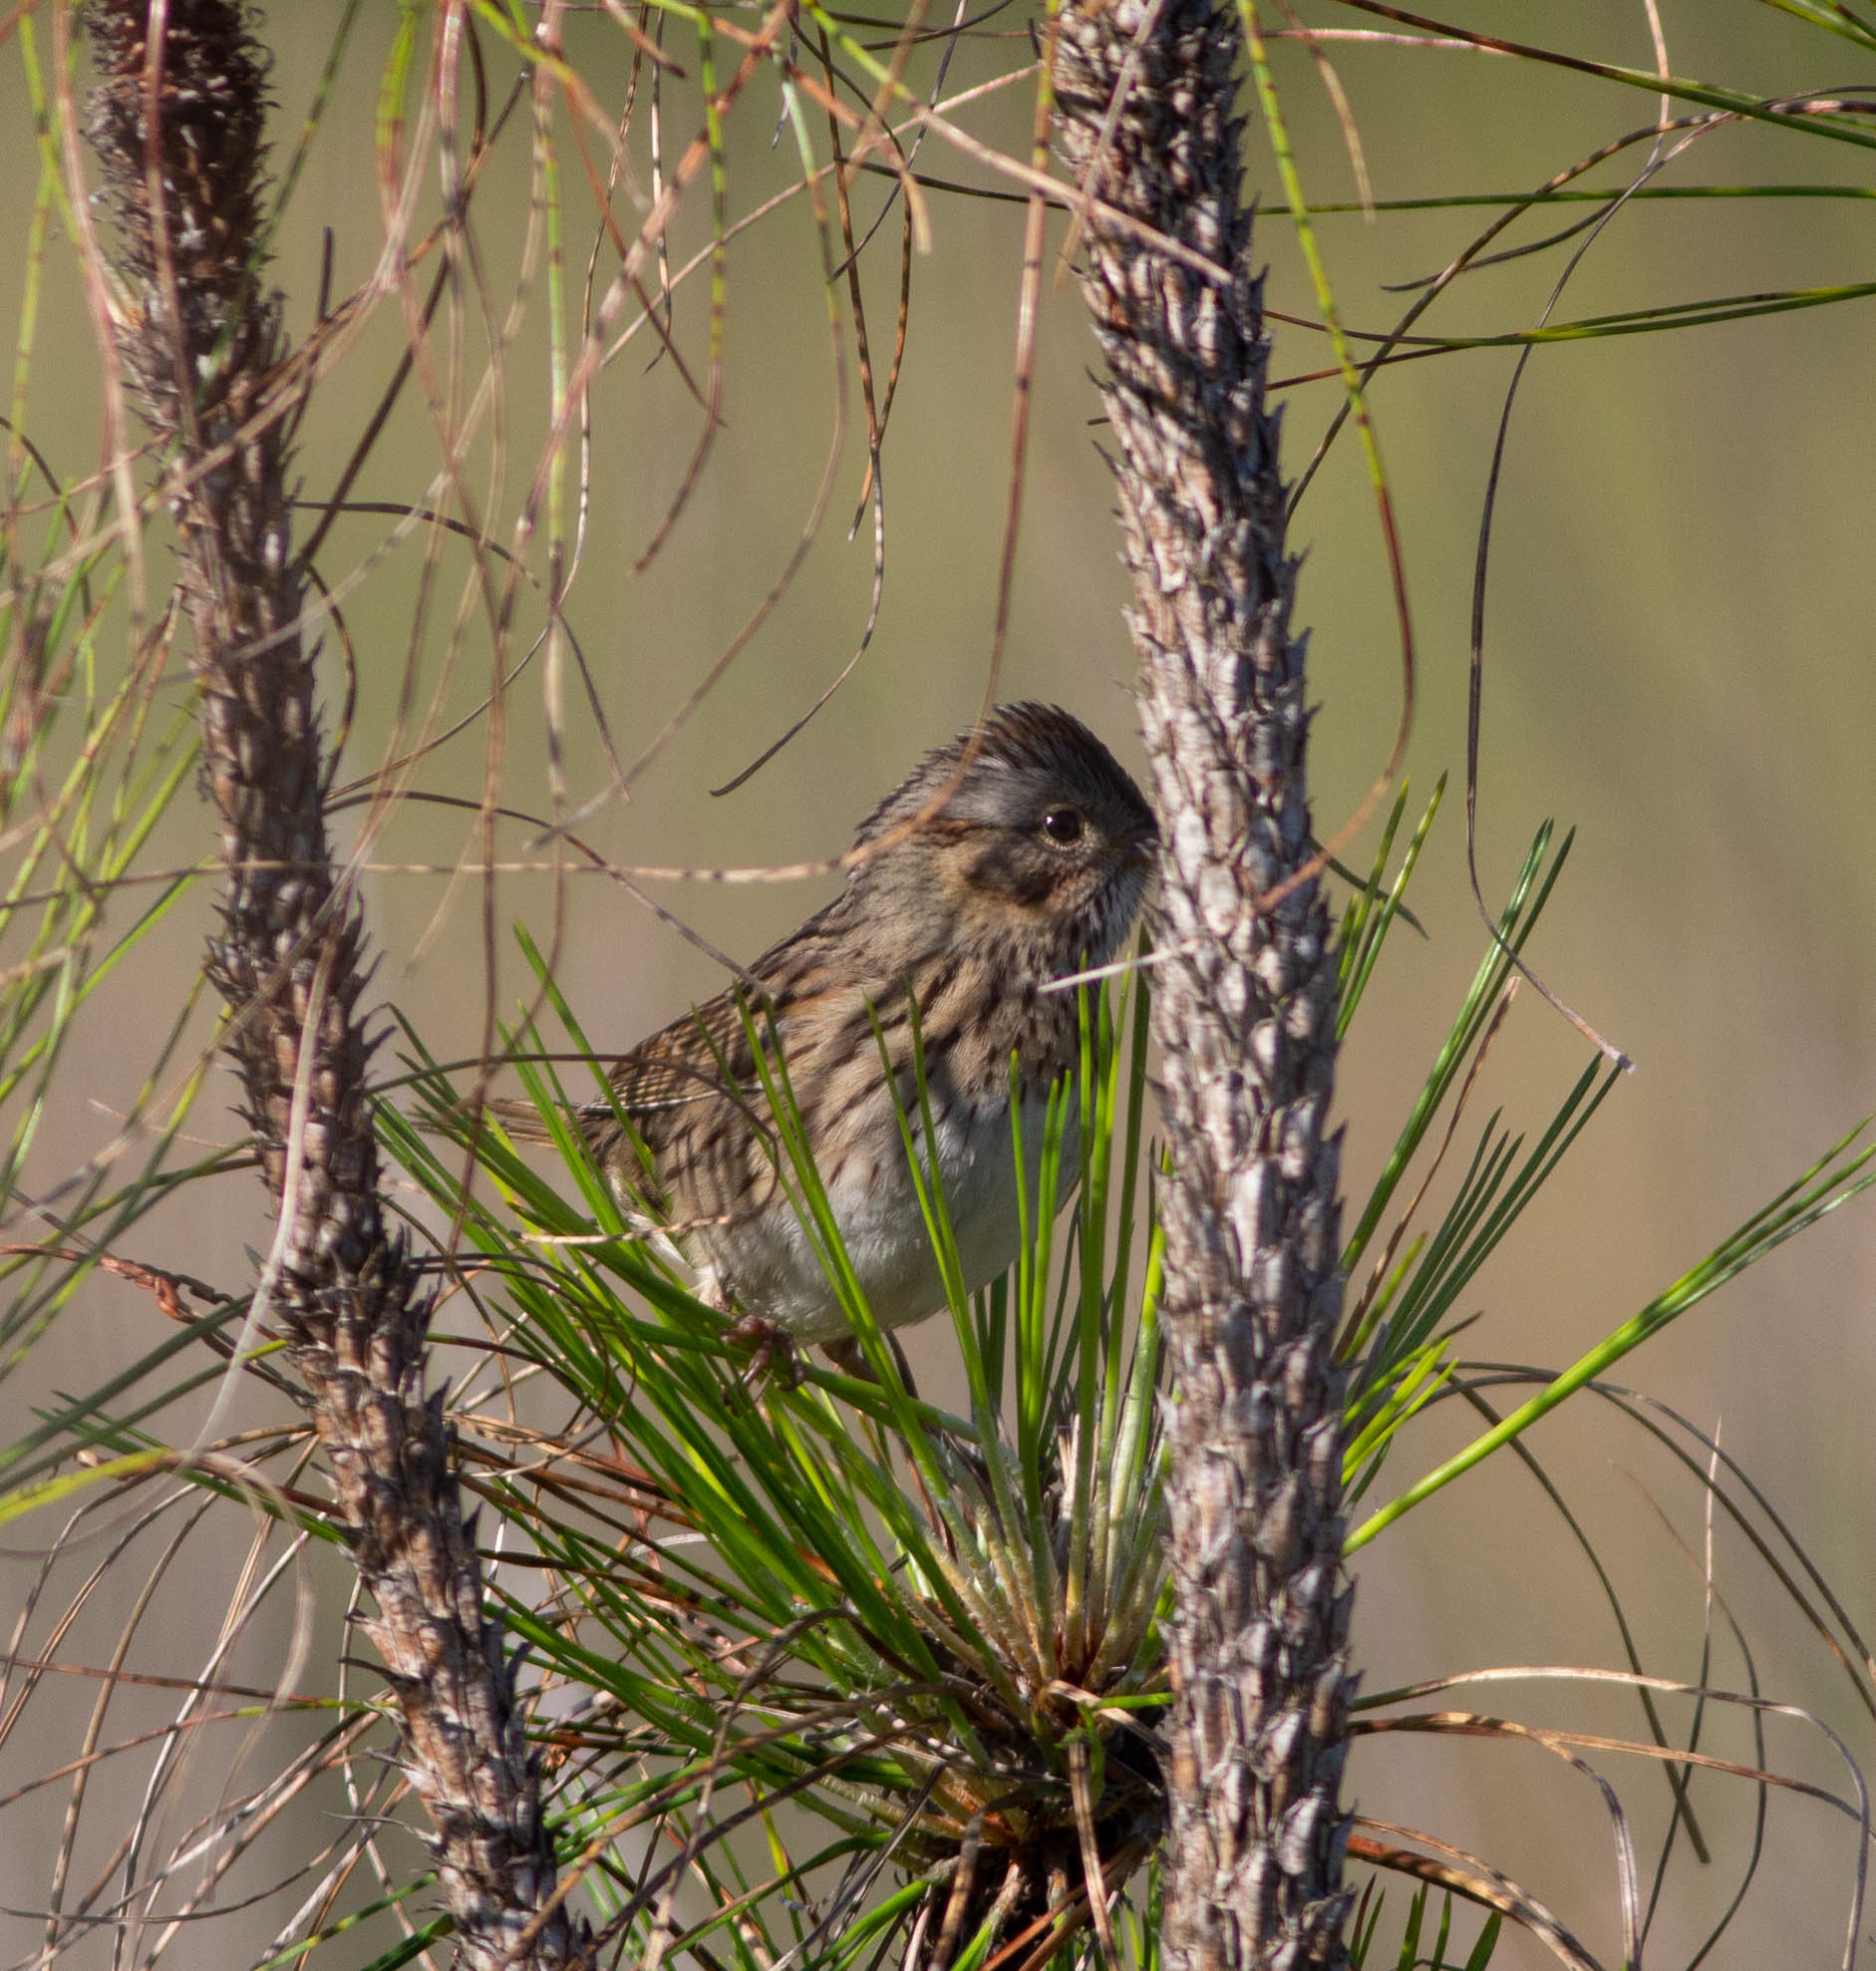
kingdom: Animalia
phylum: Chordata
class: Aves
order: Passeriformes
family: Passerellidae
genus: Melospiza
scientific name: Melospiza lincolnii
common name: Lincoln's sparrow
